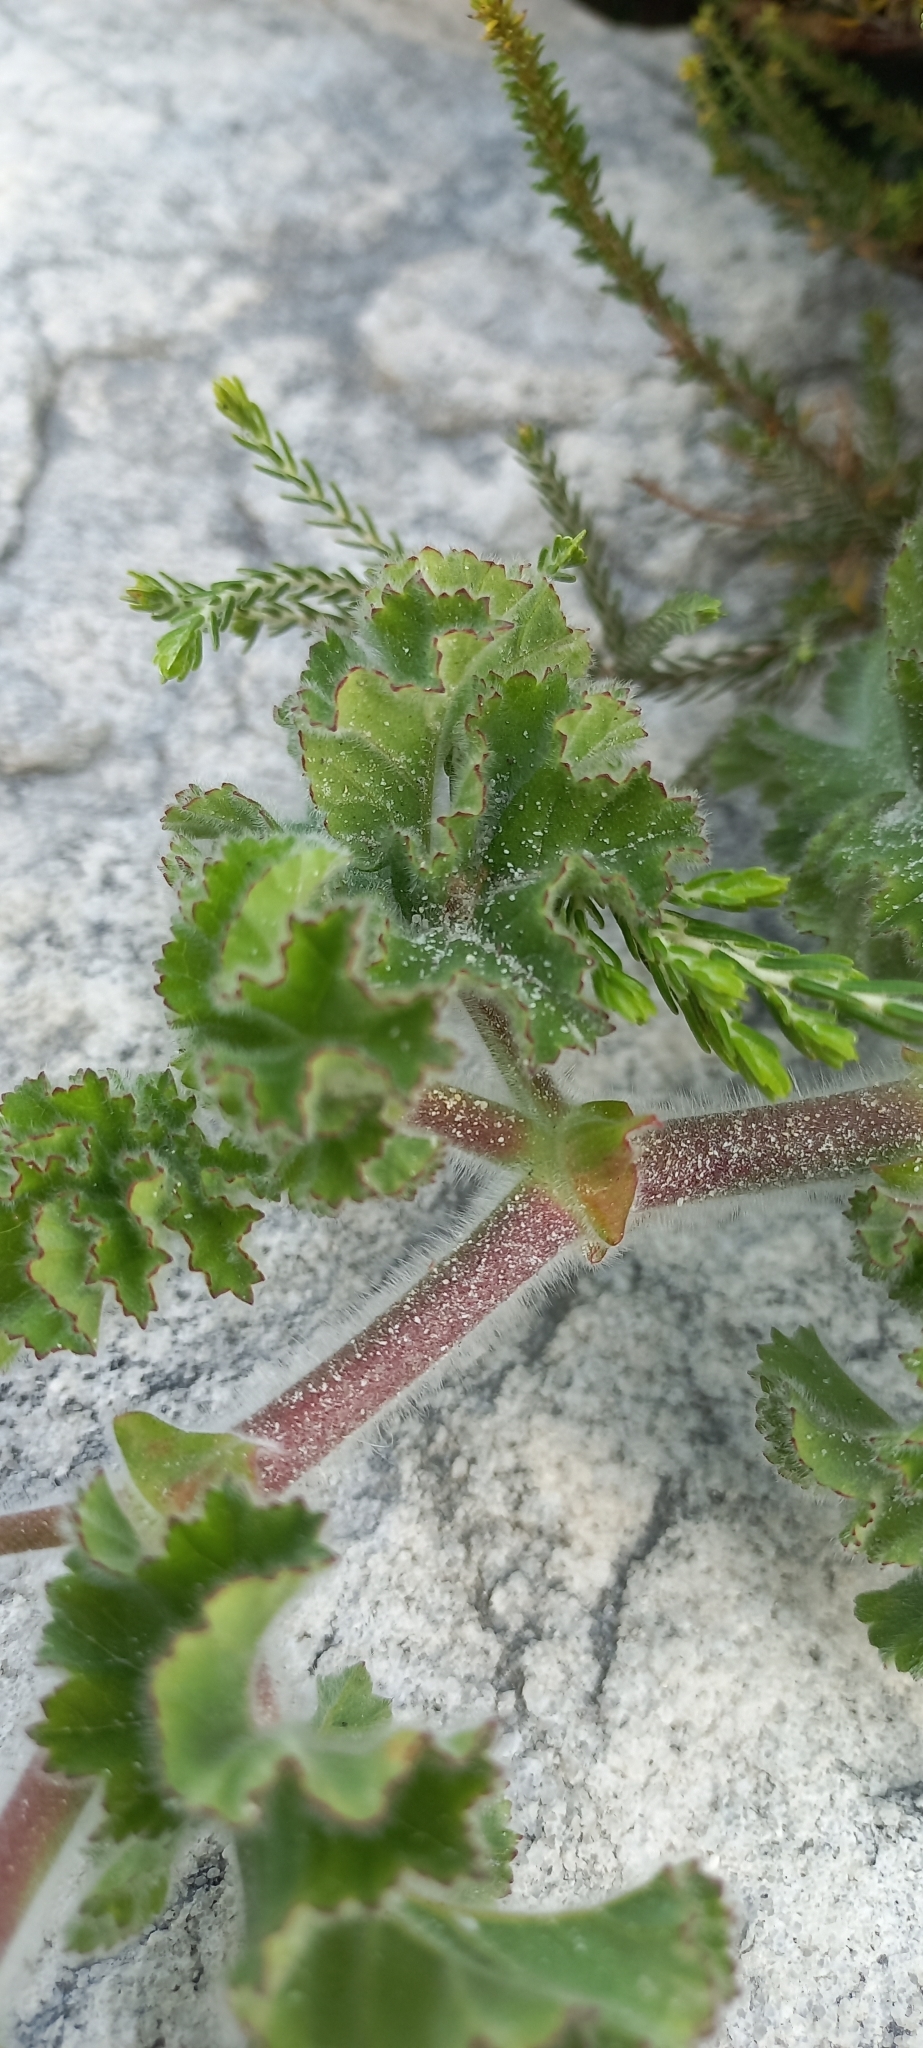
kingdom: Plantae
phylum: Tracheophyta
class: Magnoliopsida
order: Geraniales
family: Geraniaceae
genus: Pelargonium
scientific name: Pelargonium capitatum
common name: Rose scented geranium
